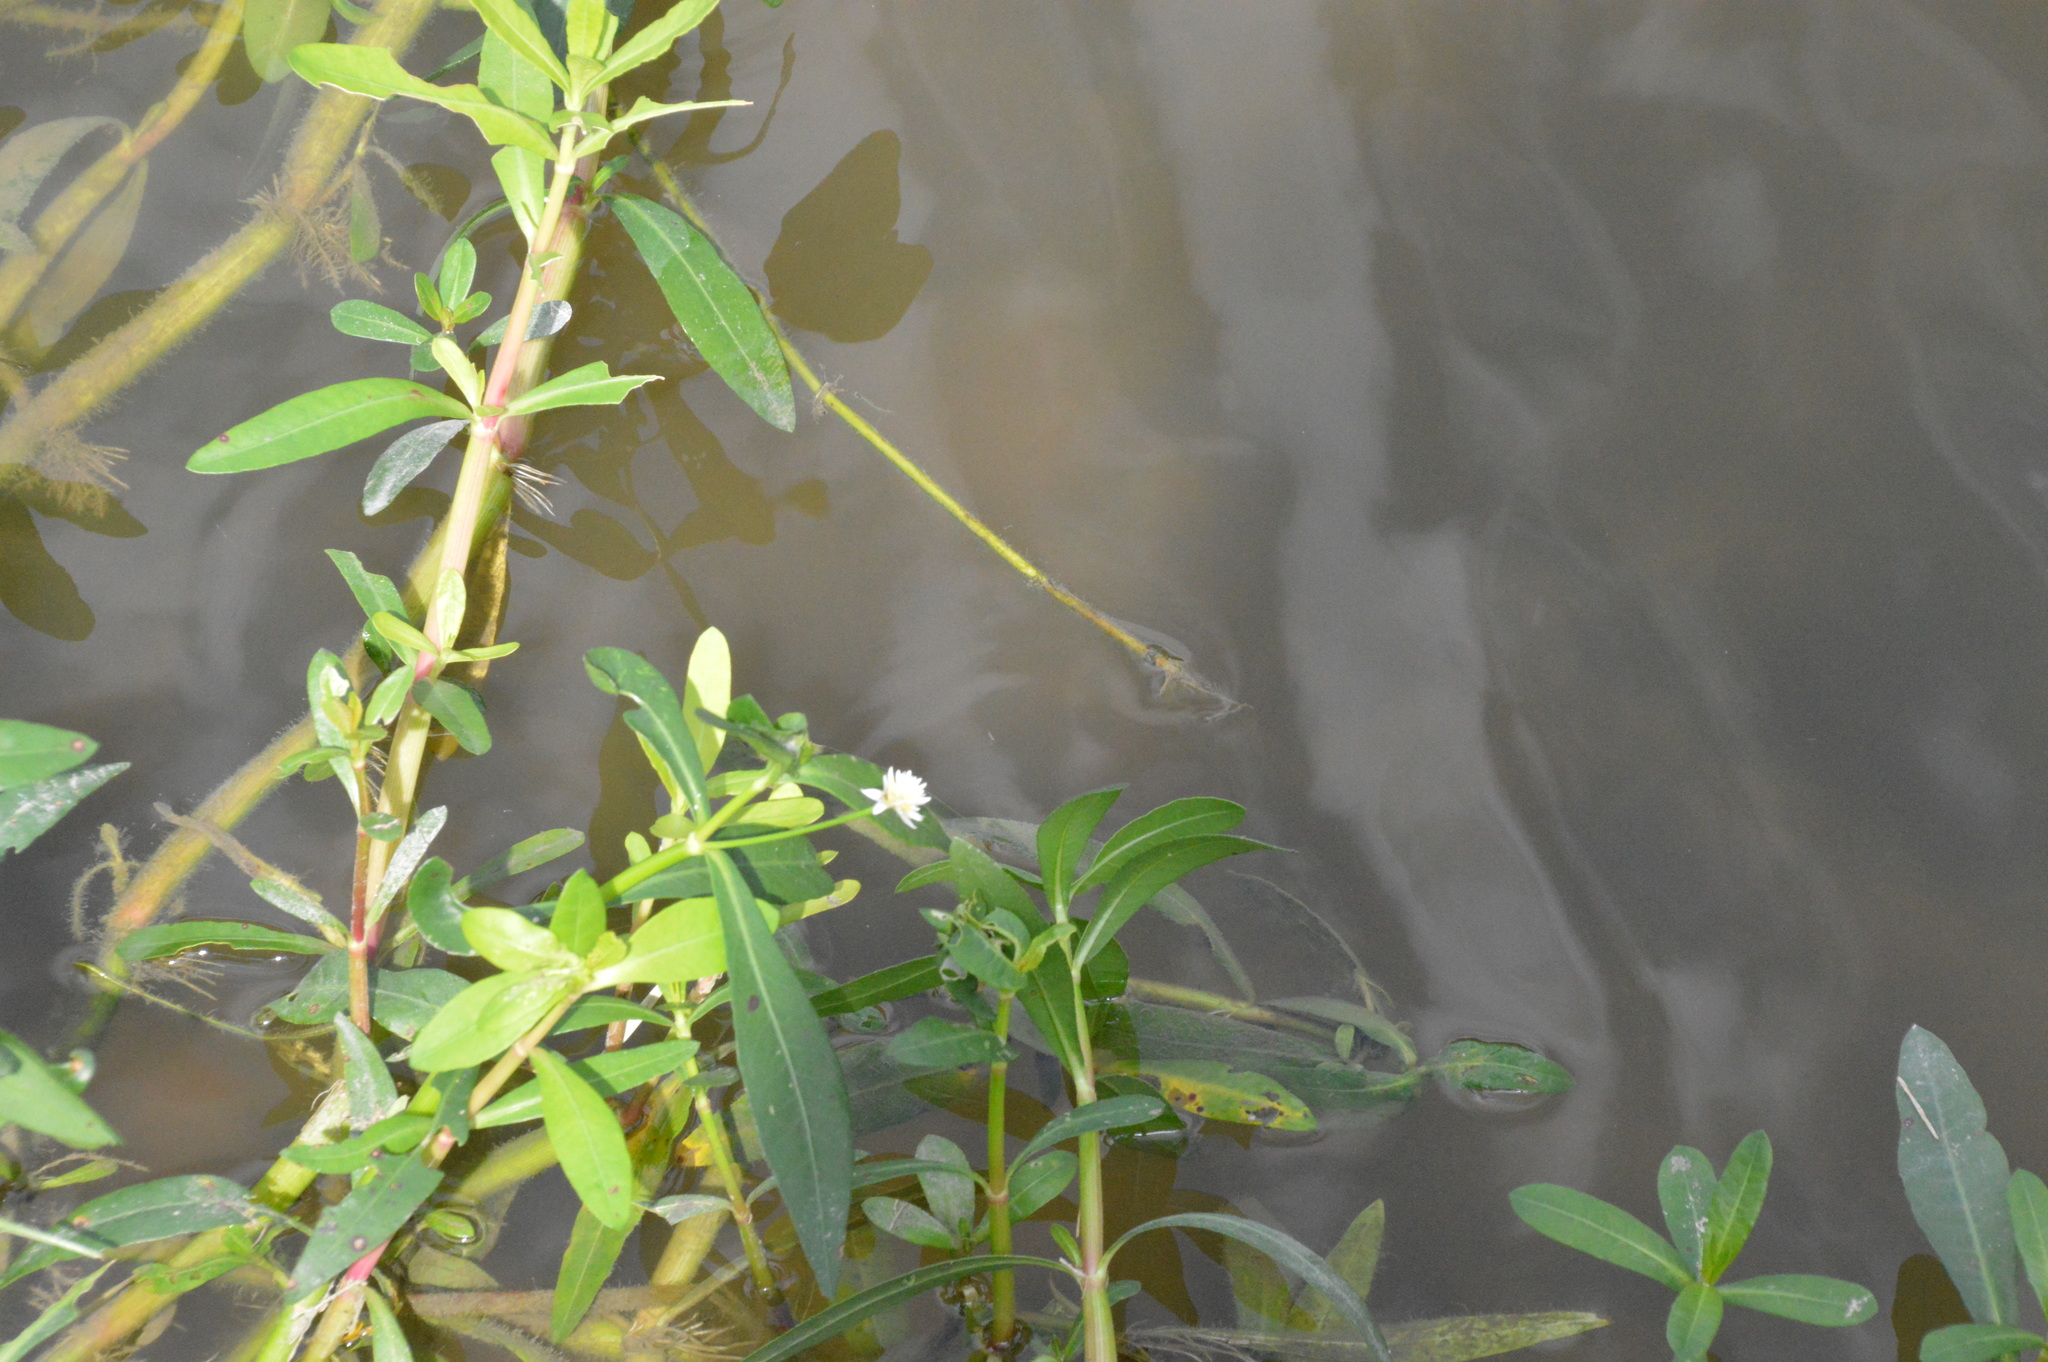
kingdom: Plantae
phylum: Tracheophyta
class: Magnoliopsida
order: Caryophyllales
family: Amaranthaceae
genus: Alternanthera
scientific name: Alternanthera philoxeroides
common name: Alligatorweed
